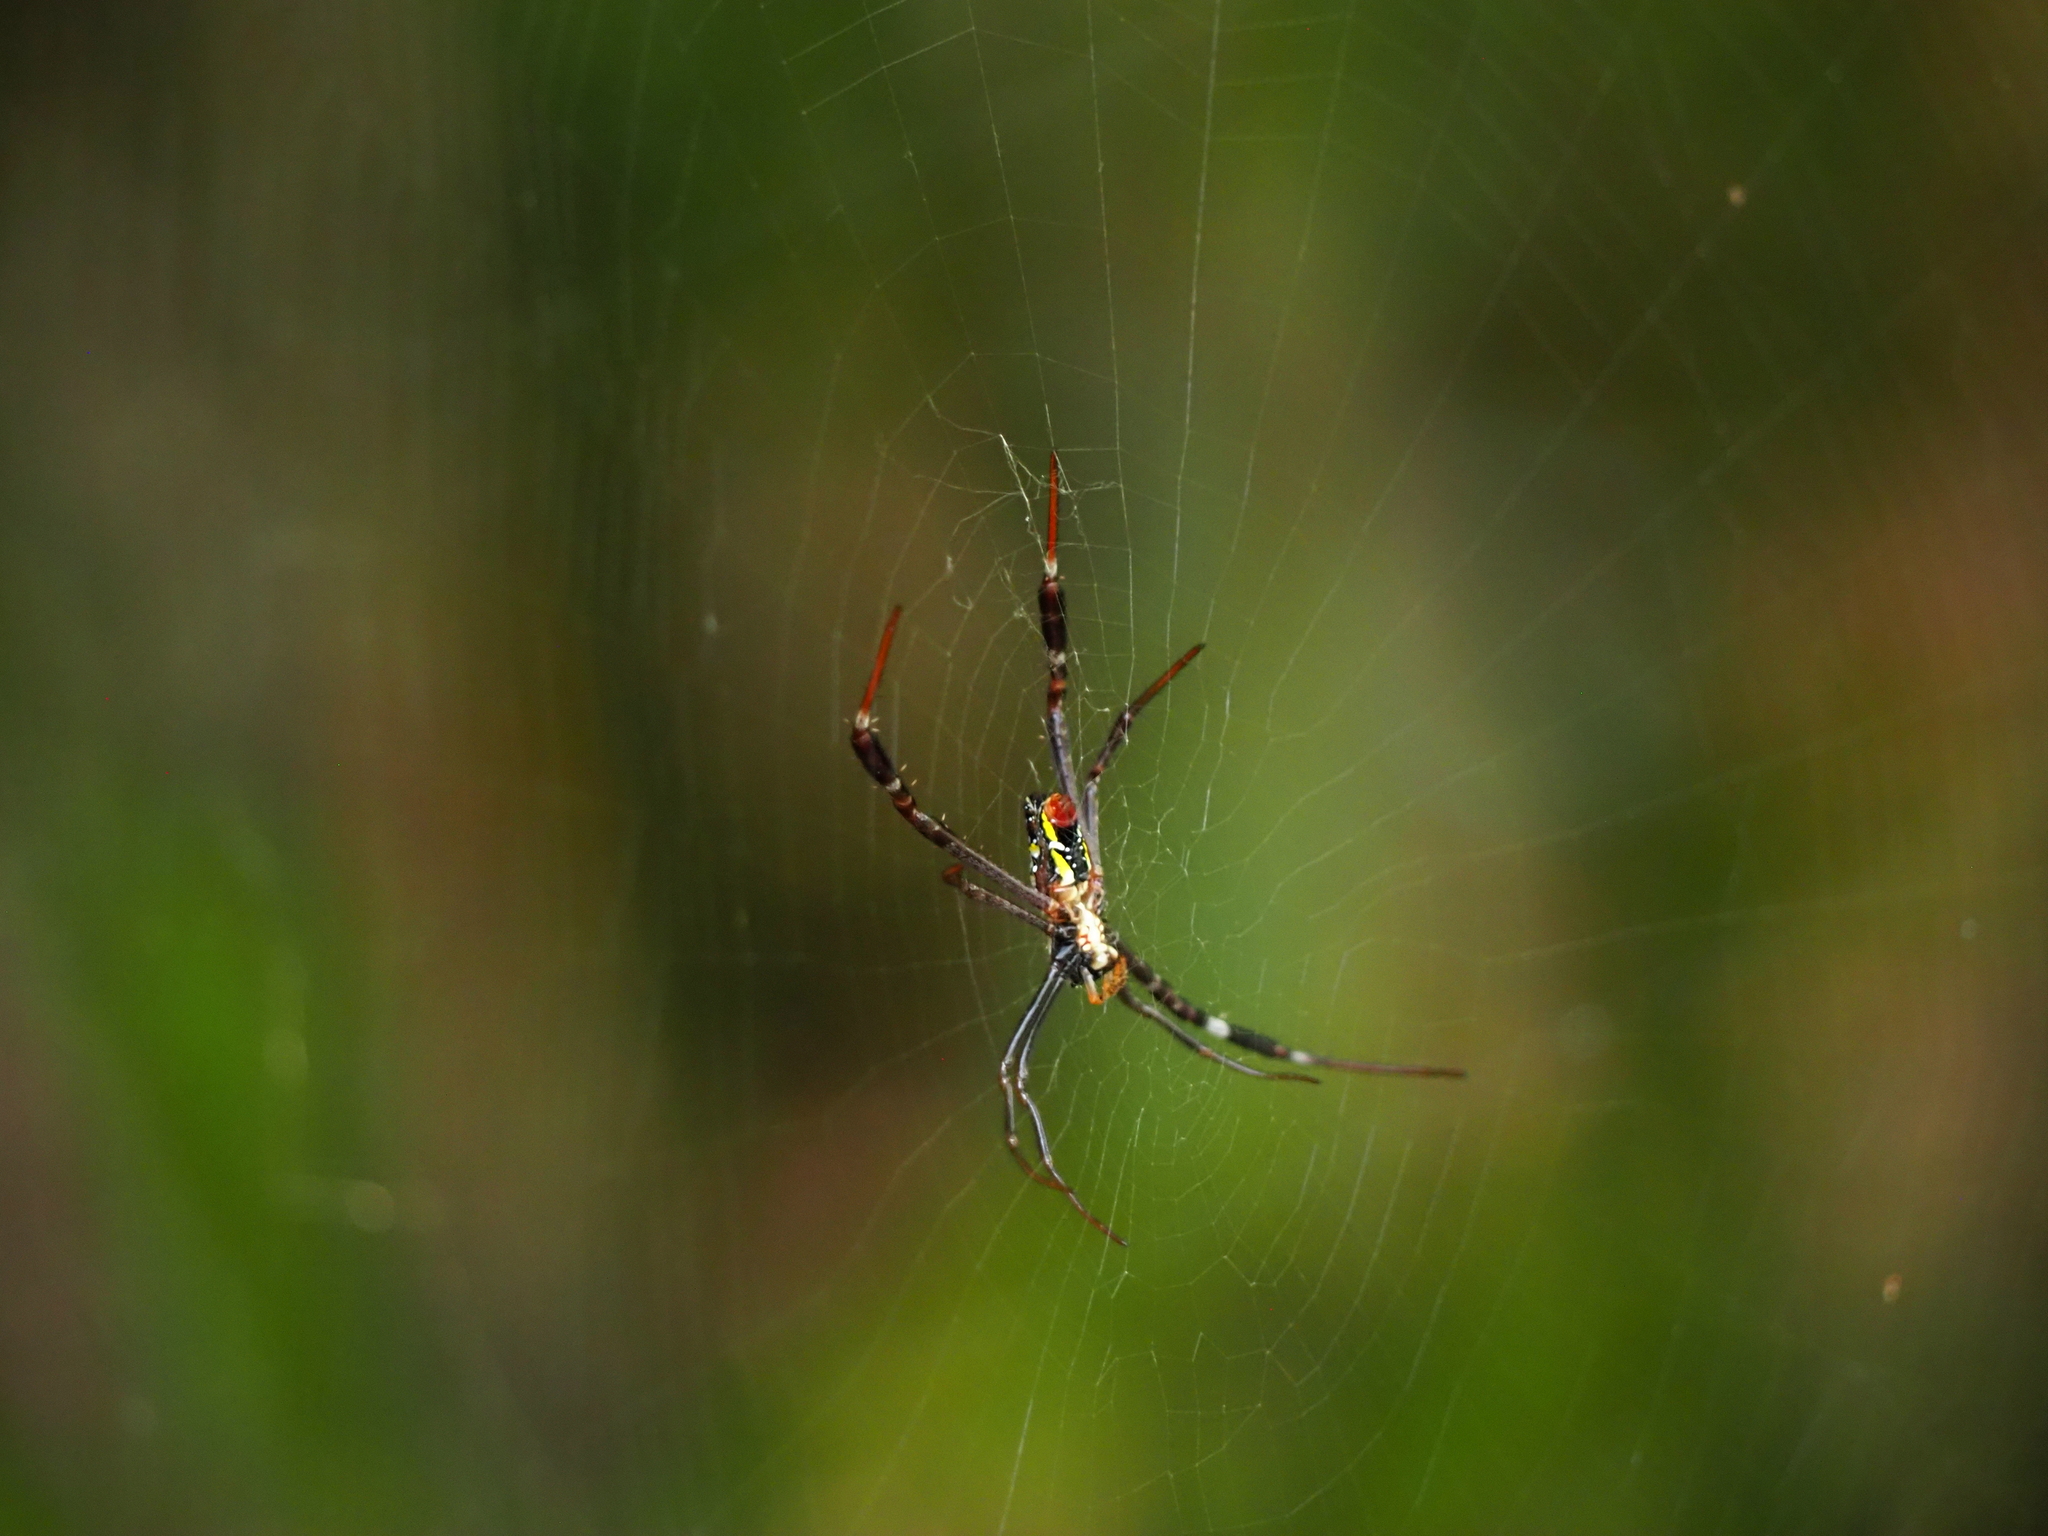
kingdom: Animalia
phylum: Arthropoda
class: Arachnida
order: Araneae
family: Araneidae
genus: Argiope
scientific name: Argiope dang
